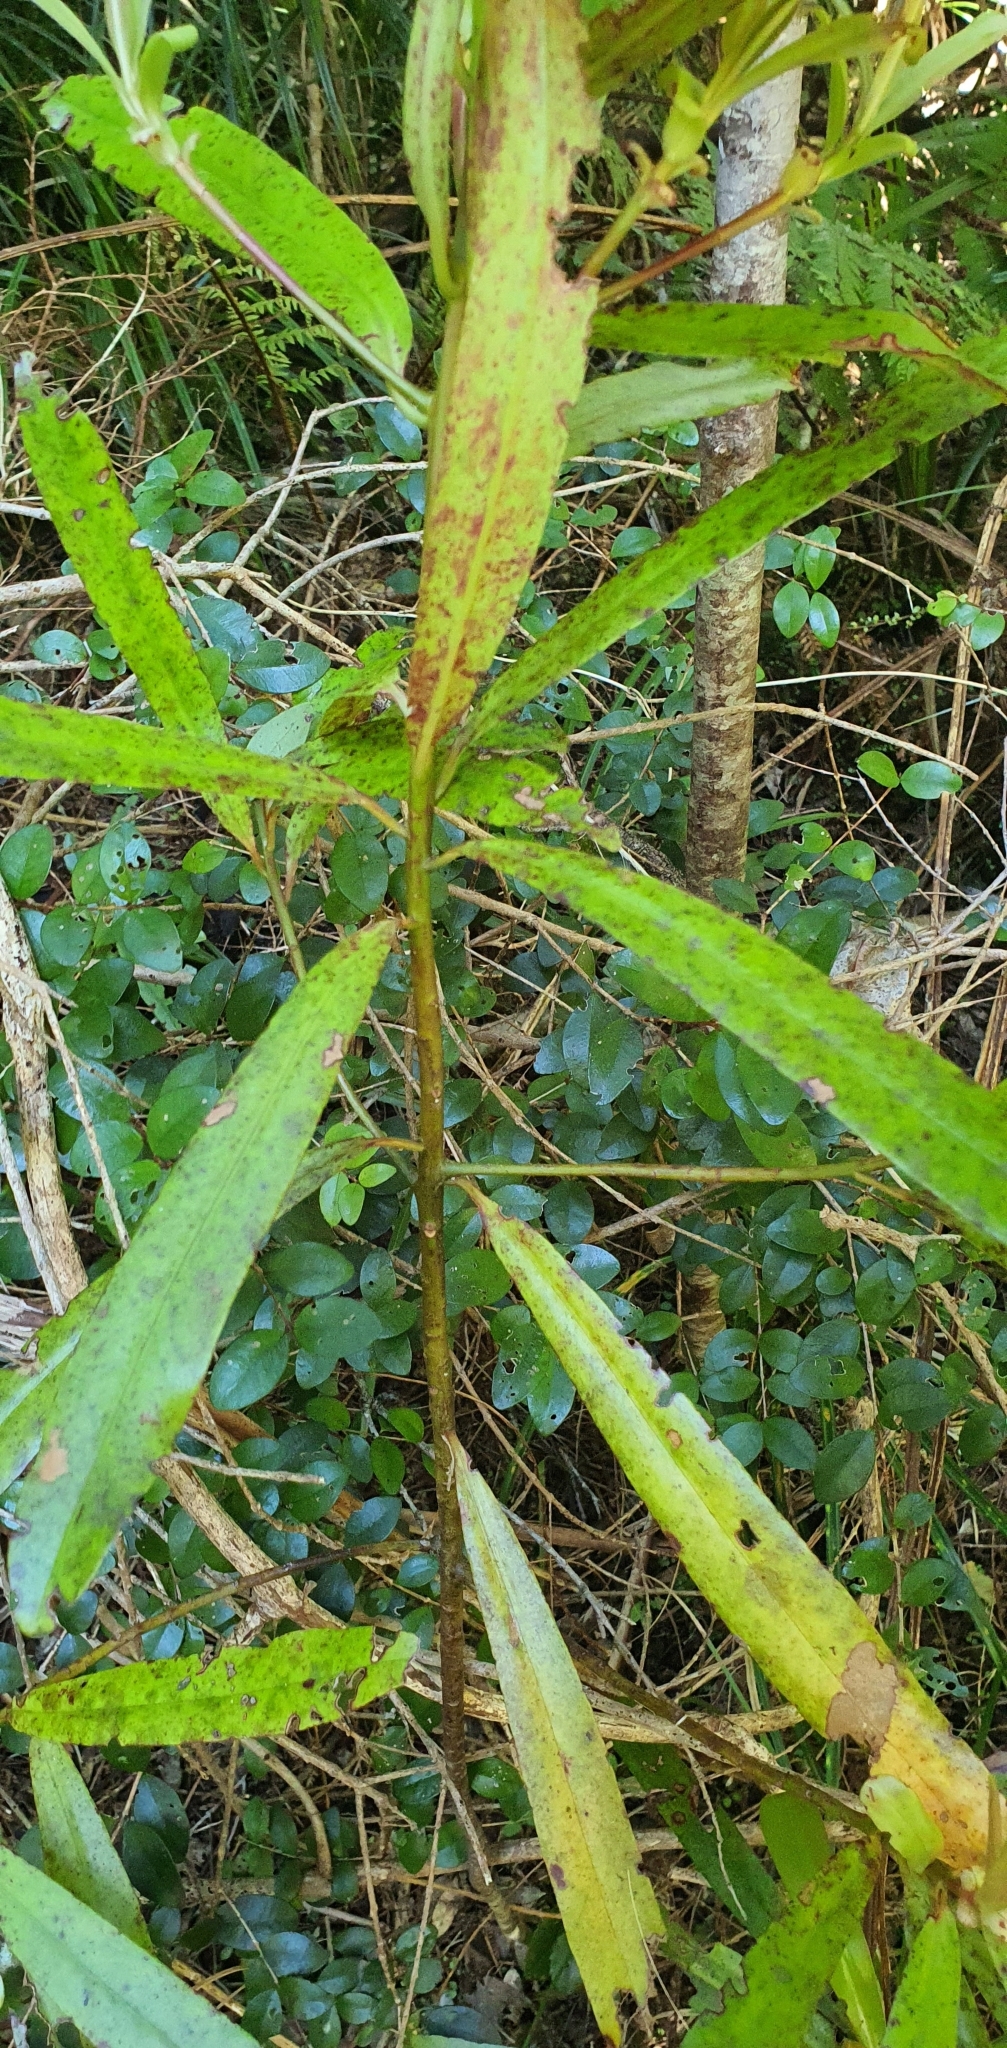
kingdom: Plantae
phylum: Tracheophyta
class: Magnoliopsida
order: Ericales
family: Primulaceae
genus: Myrsine
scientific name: Myrsine salicina
